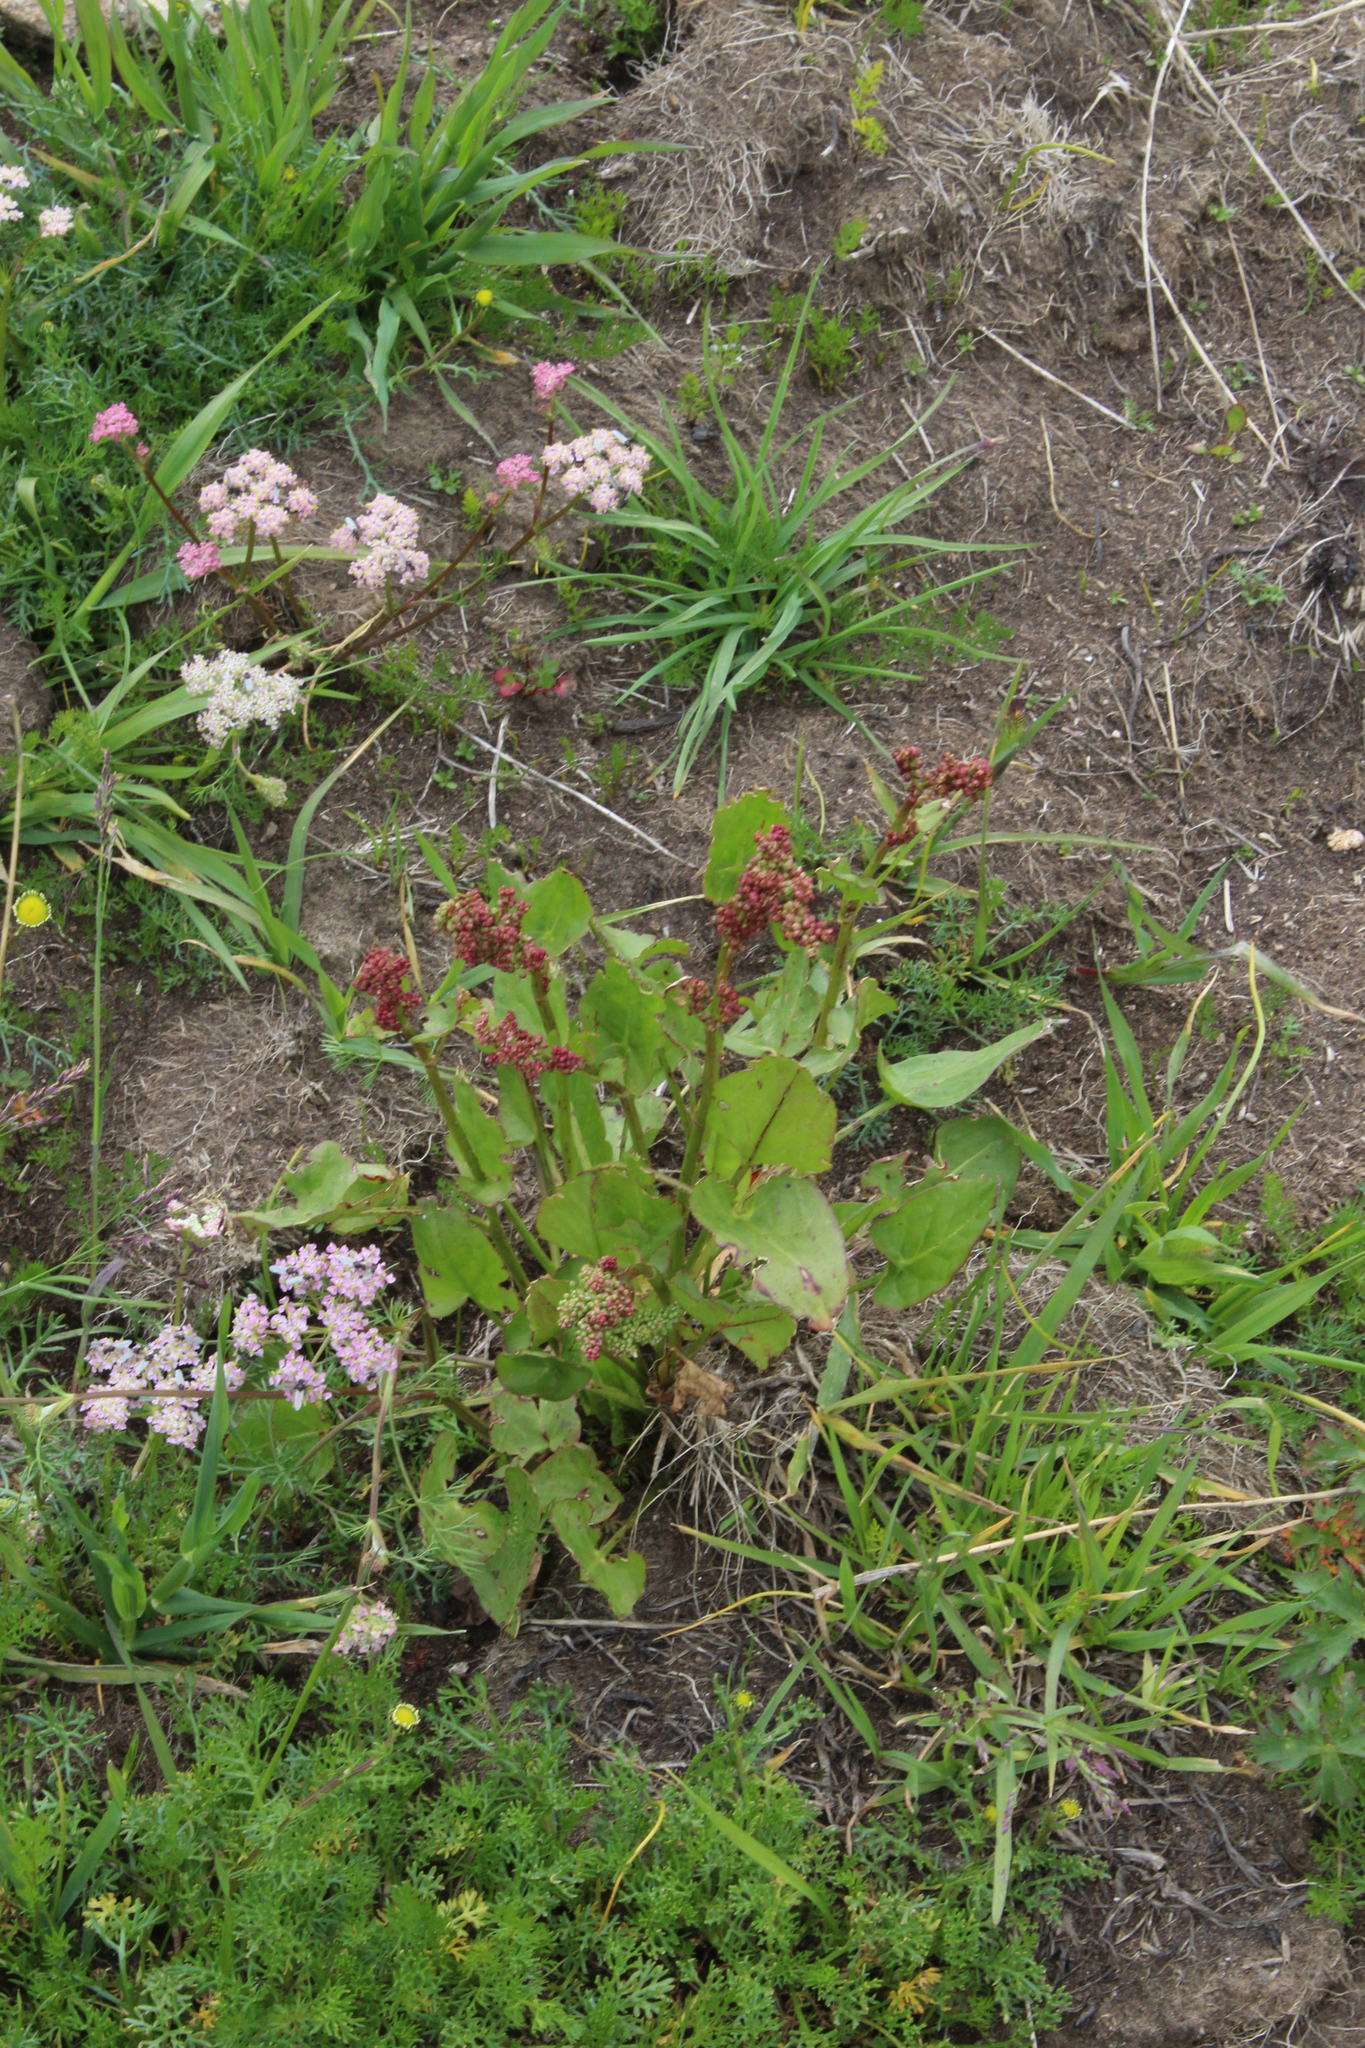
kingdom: Plantae
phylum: Tracheophyta
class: Magnoliopsida
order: Caryophyllales
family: Polygonaceae
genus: Rumex
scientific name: Rumex arifolius
